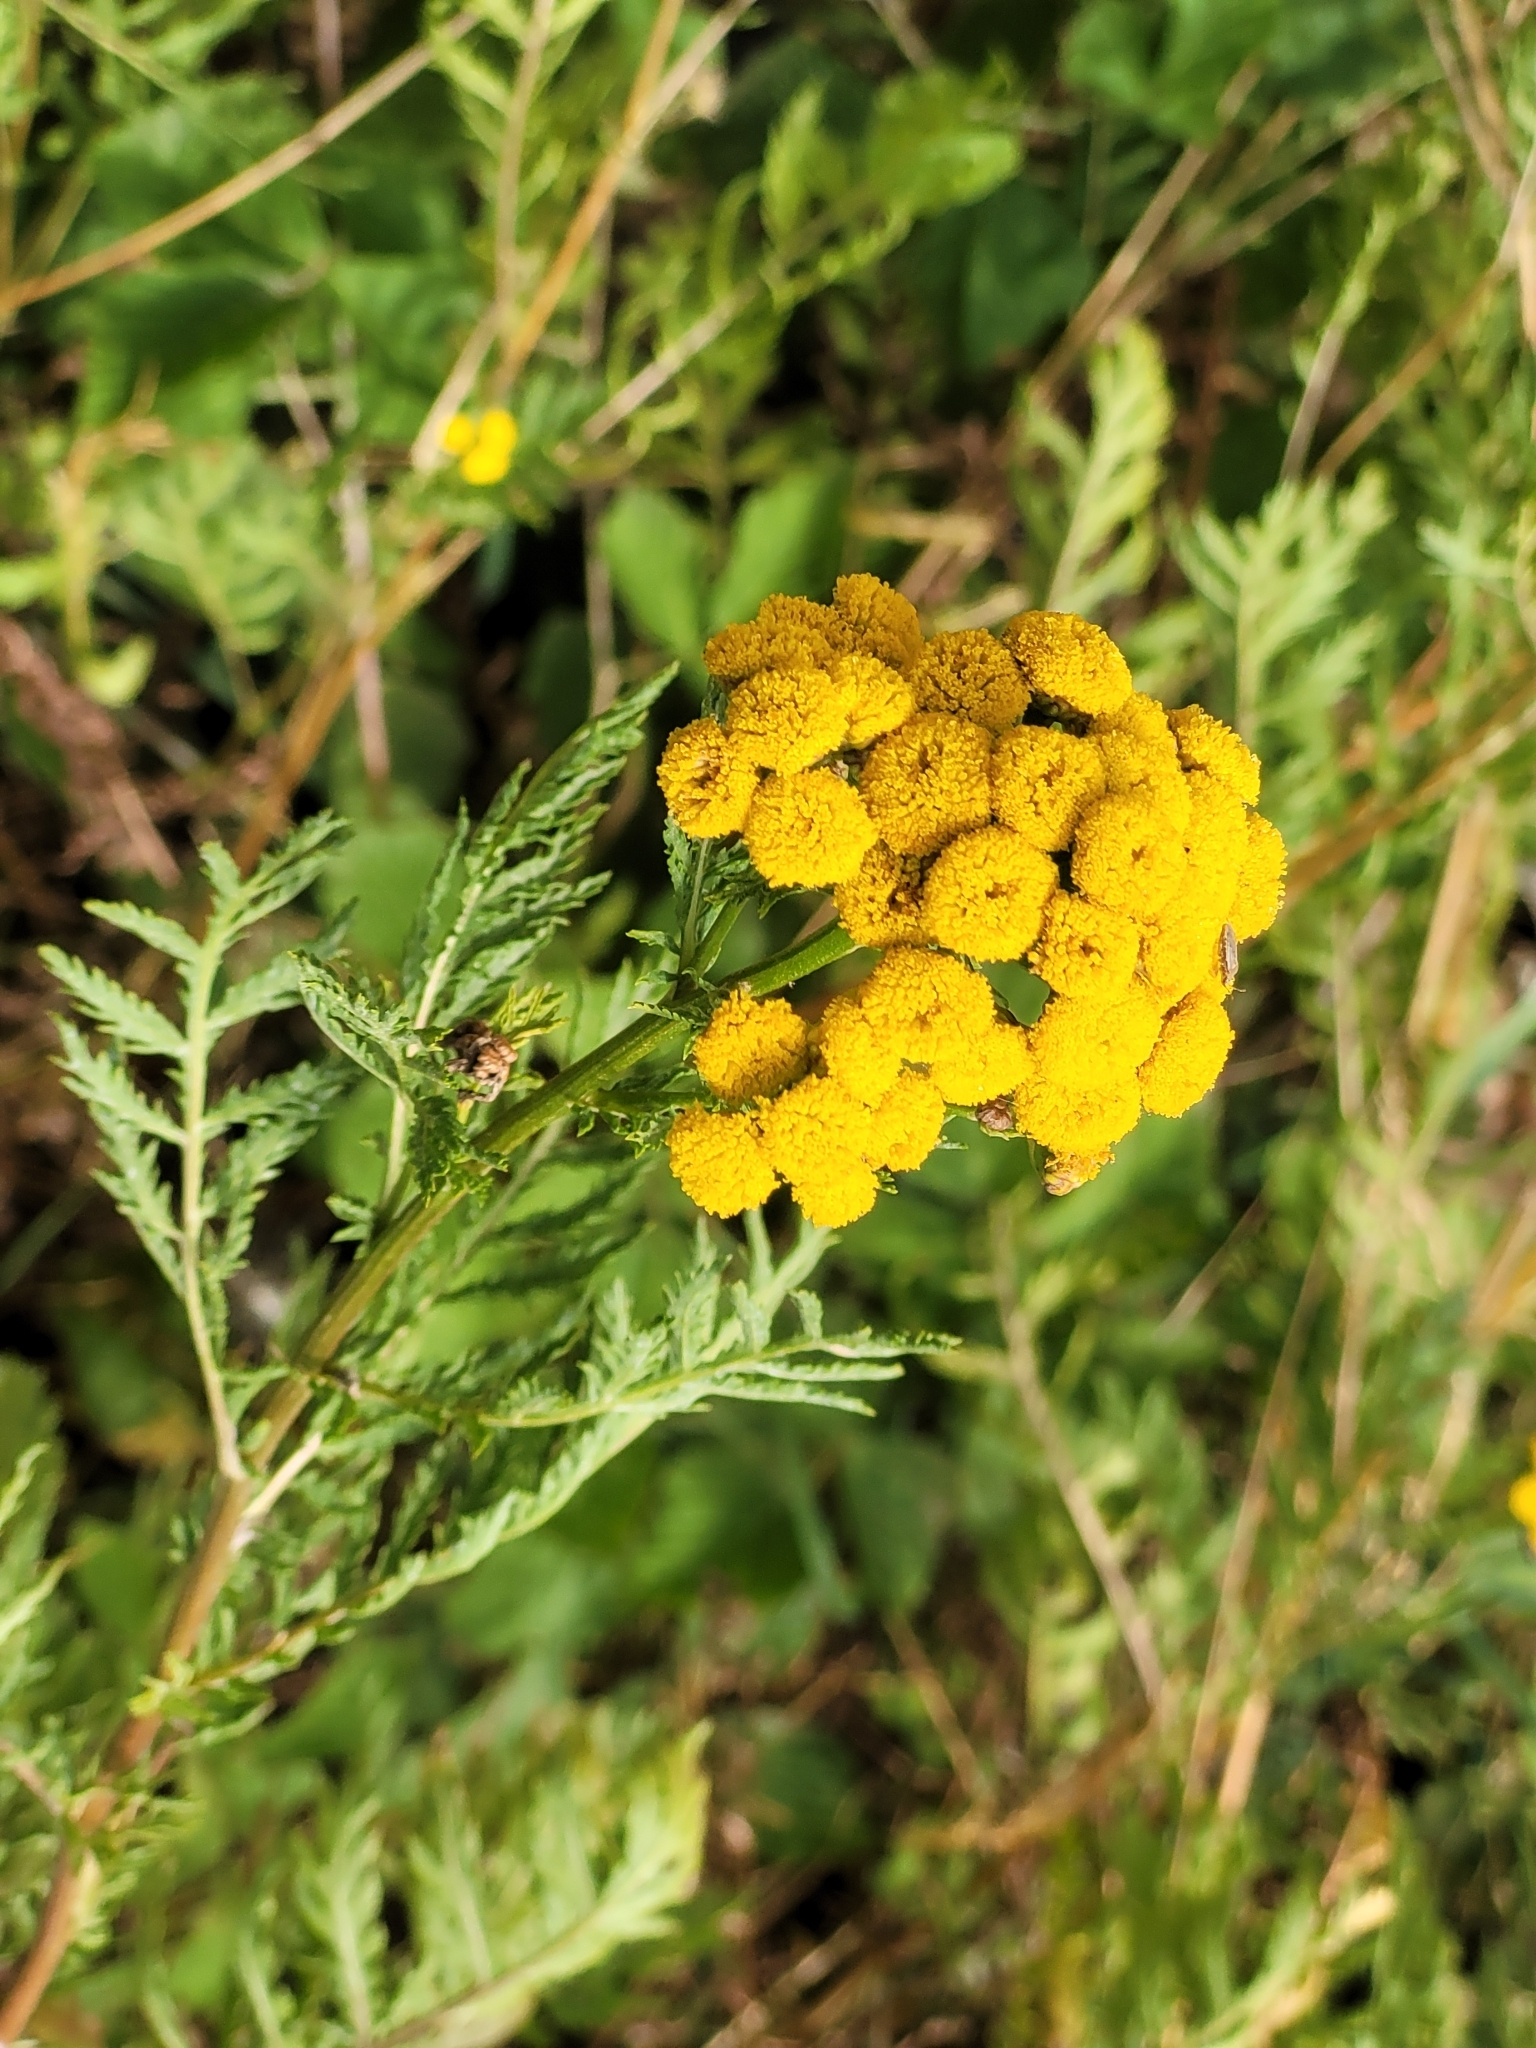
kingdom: Plantae
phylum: Tracheophyta
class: Magnoliopsida
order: Asterales
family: Asteraceae
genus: Tanacetum
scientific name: Tanacetum vulgare
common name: Common tansy
